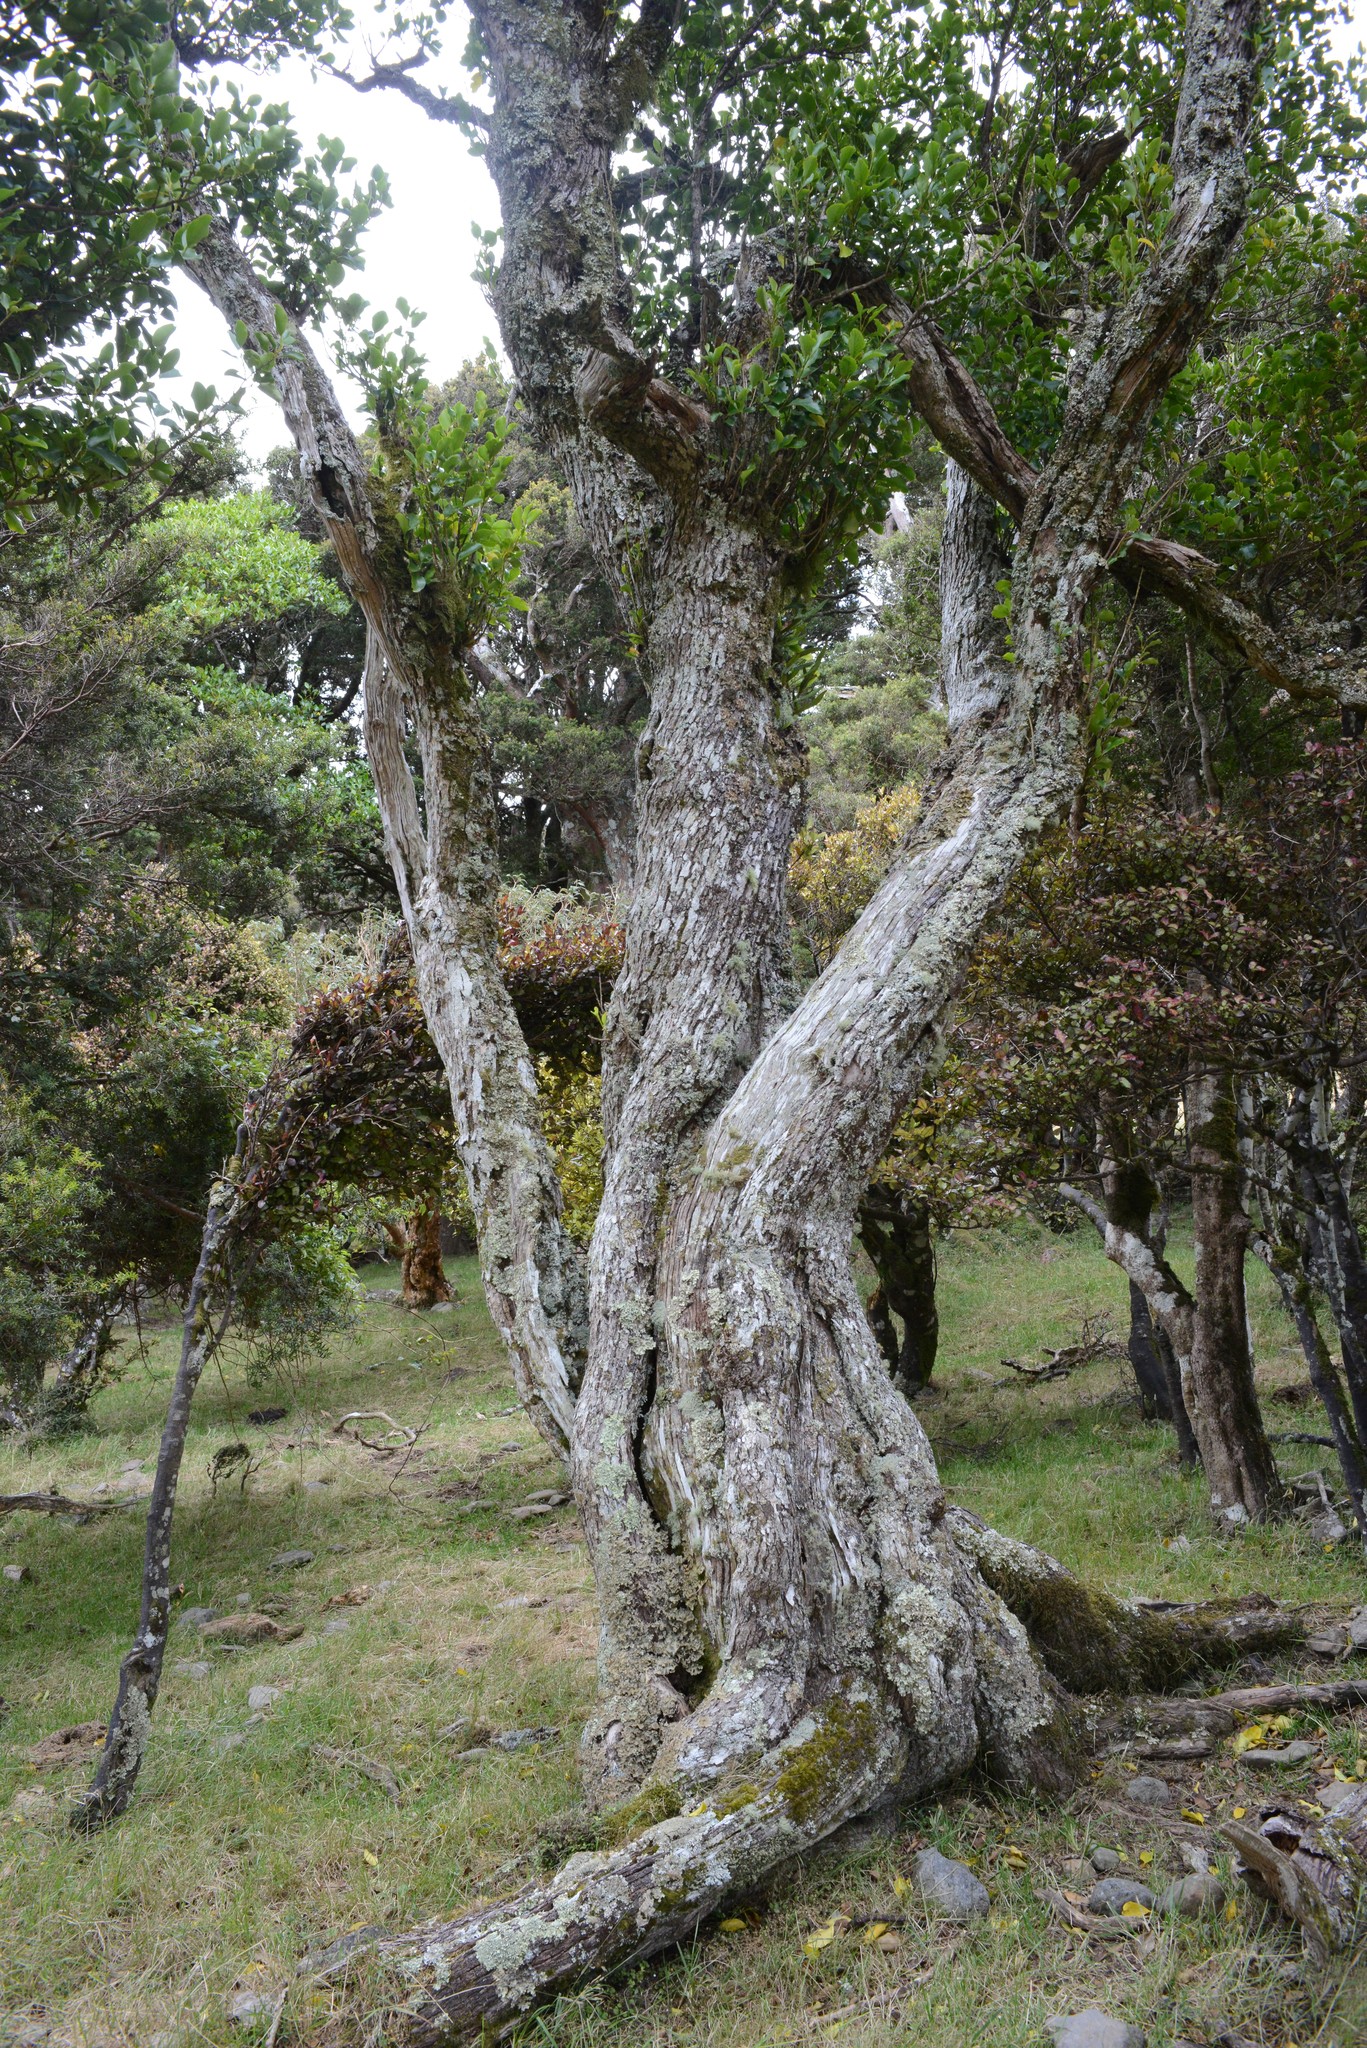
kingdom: Plantae
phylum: Tracheophyta
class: Magnoliopsida
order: Apiales
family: Griseliniaceae
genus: Griselinia
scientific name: Griselinia littoralis
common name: New zealand broadleaf
